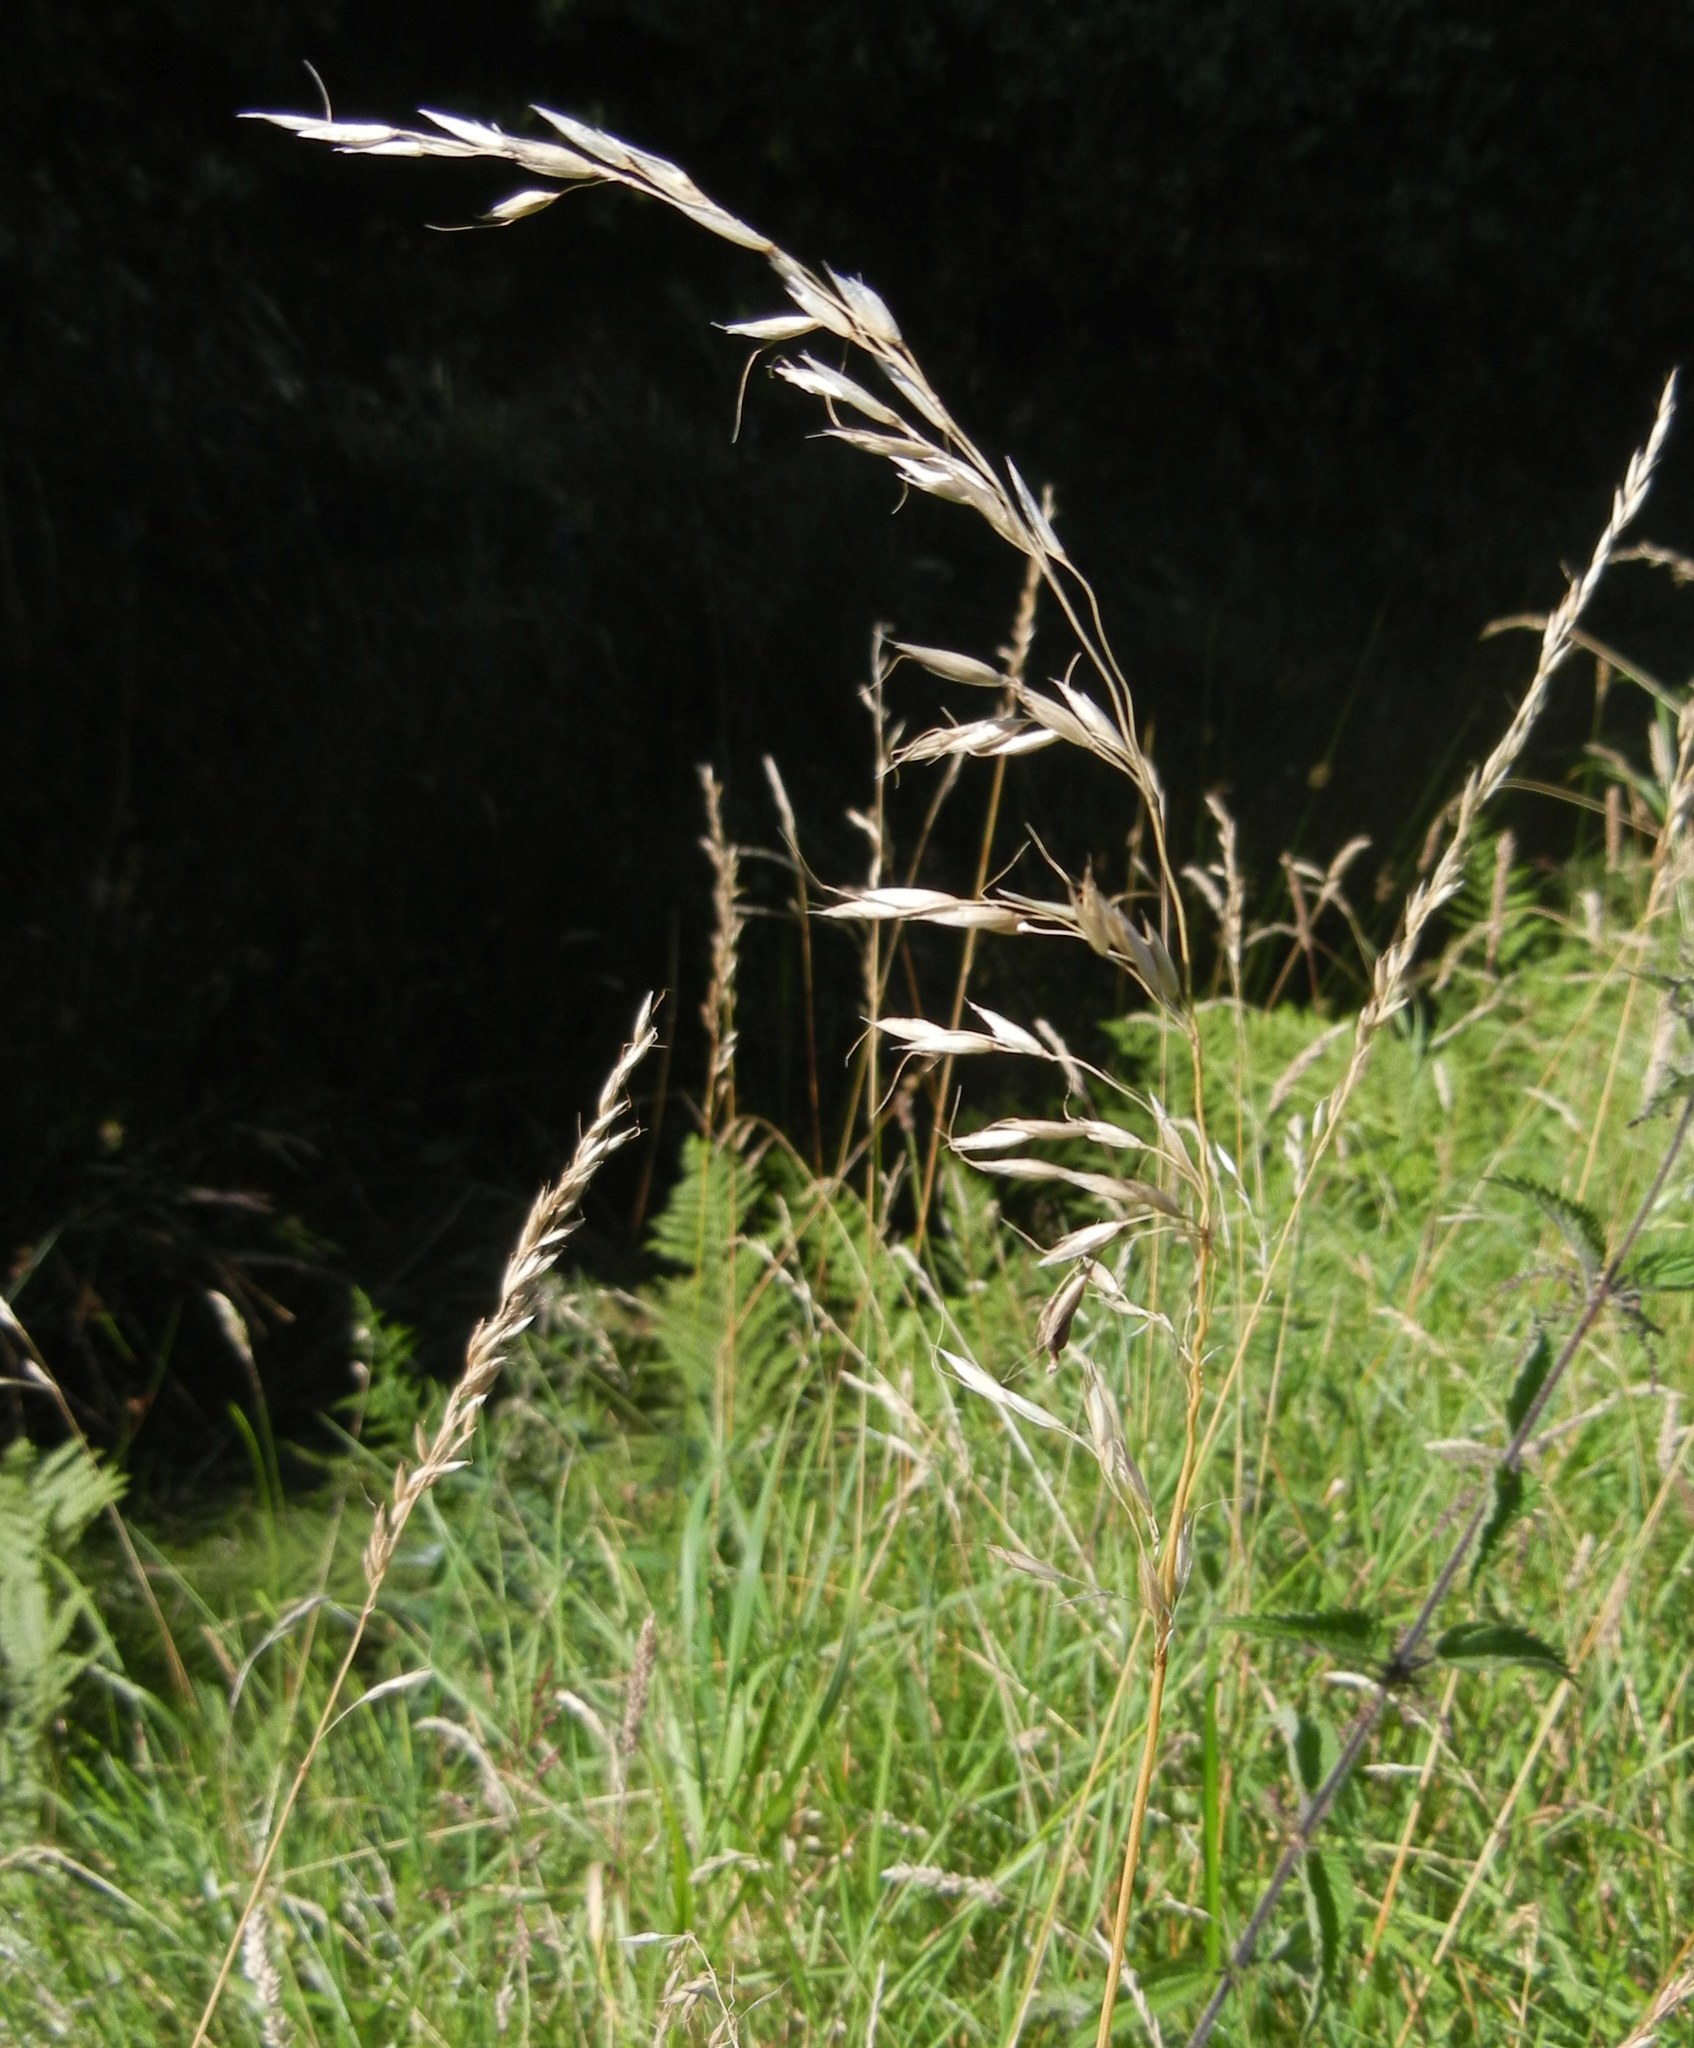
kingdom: Plantae
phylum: Tracheophyta
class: Liliopsida
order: Poales
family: Poaceae
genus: Arrhenatherum
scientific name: Arrhenatherum elatius
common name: Tall oatgrass
